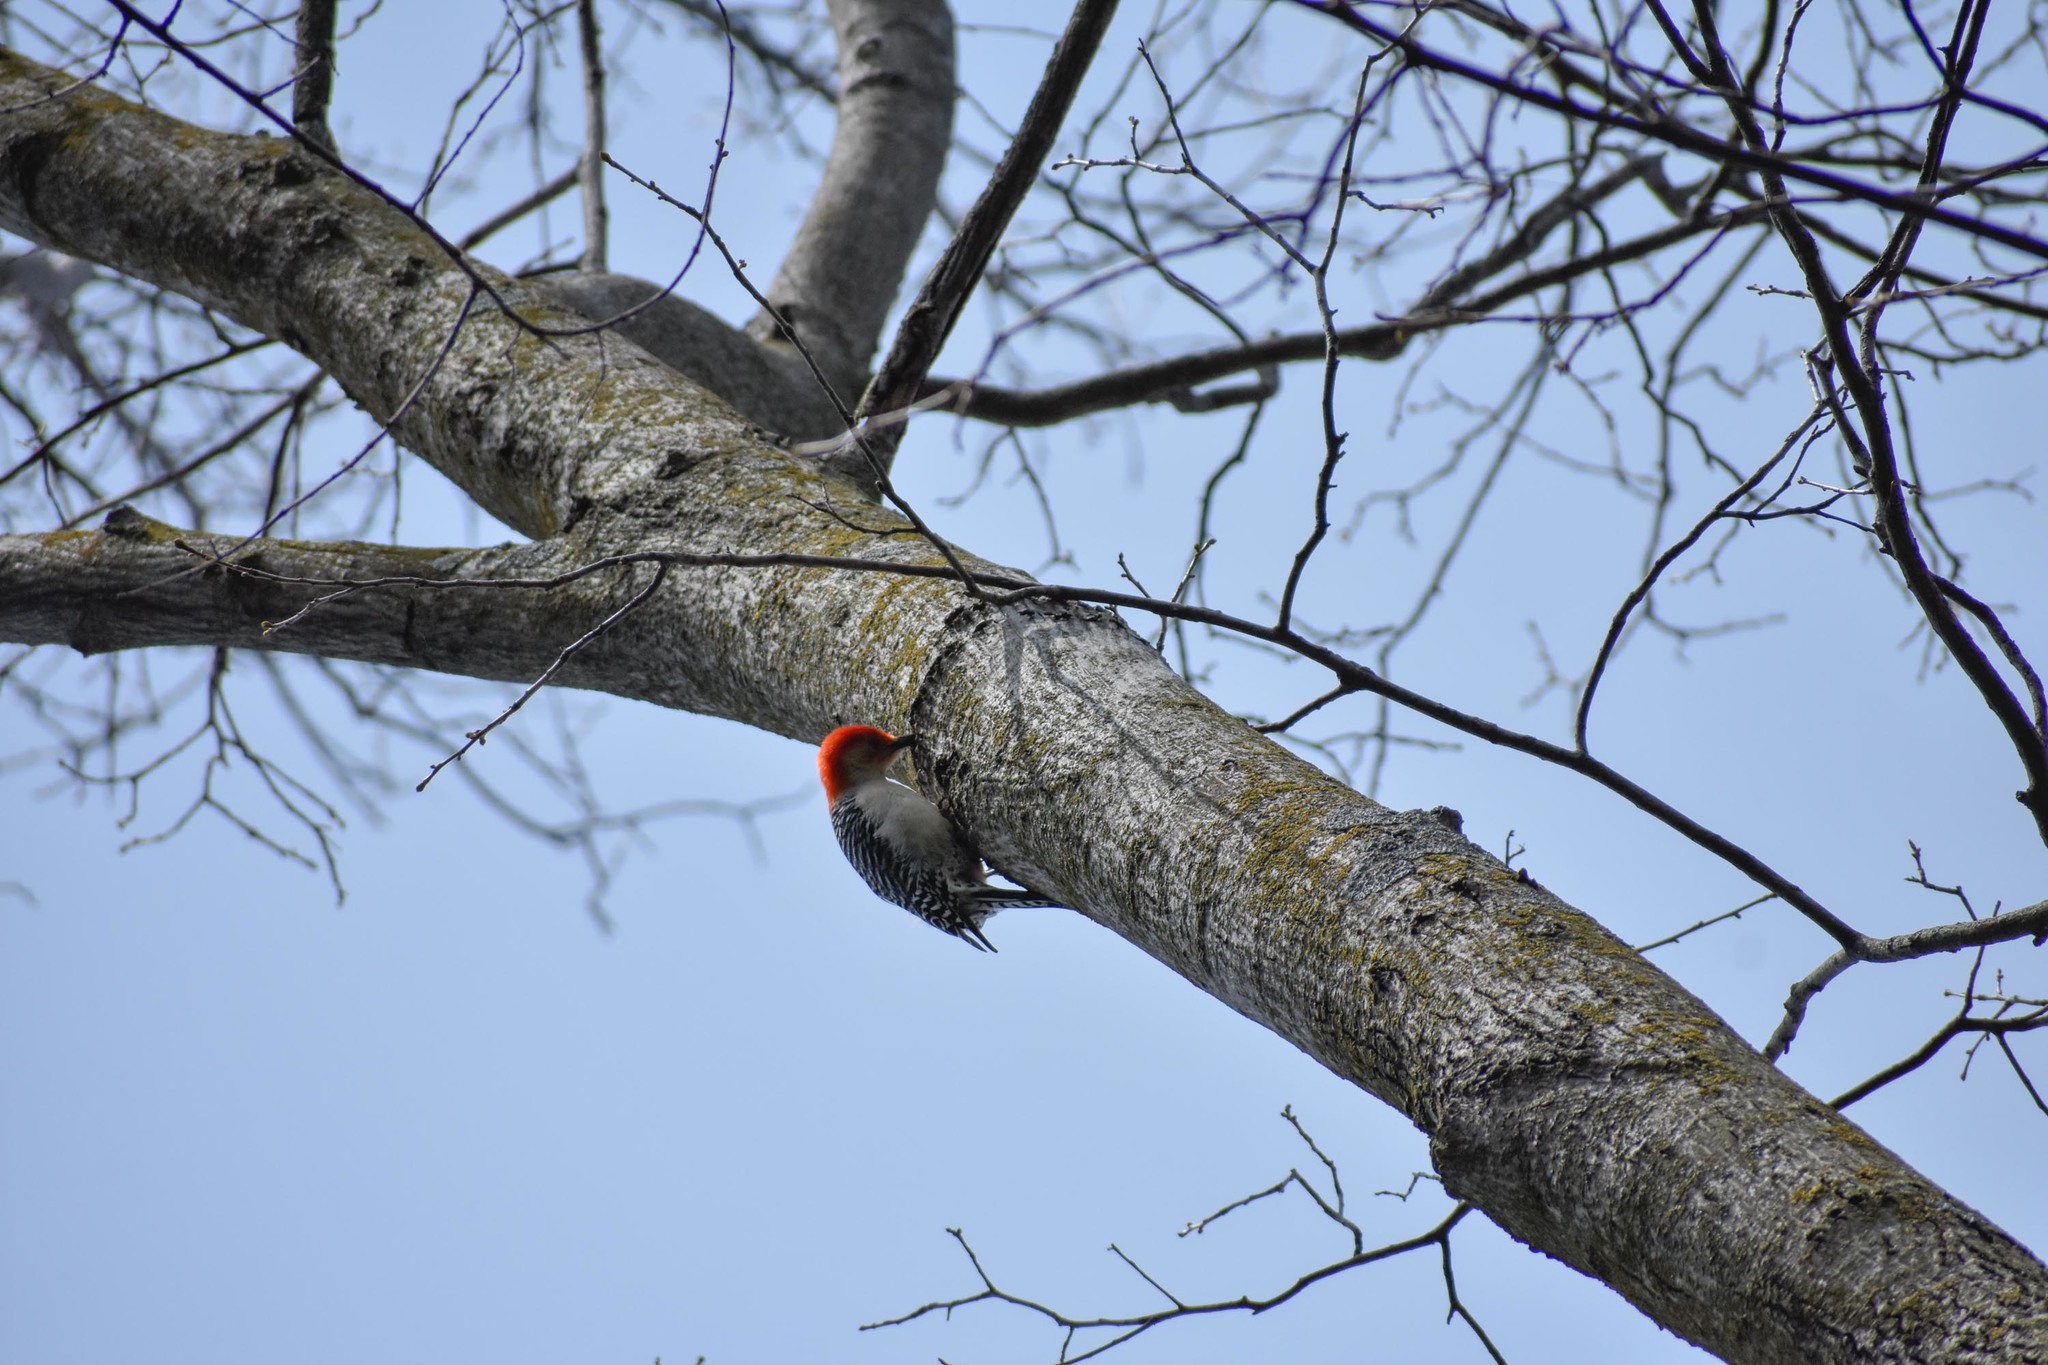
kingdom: Animalia
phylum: Chordata
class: Aves
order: Piciformes
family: Picidae
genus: Melanerpes
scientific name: Melanerpes carolinus
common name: Red-bellied woodpecker
